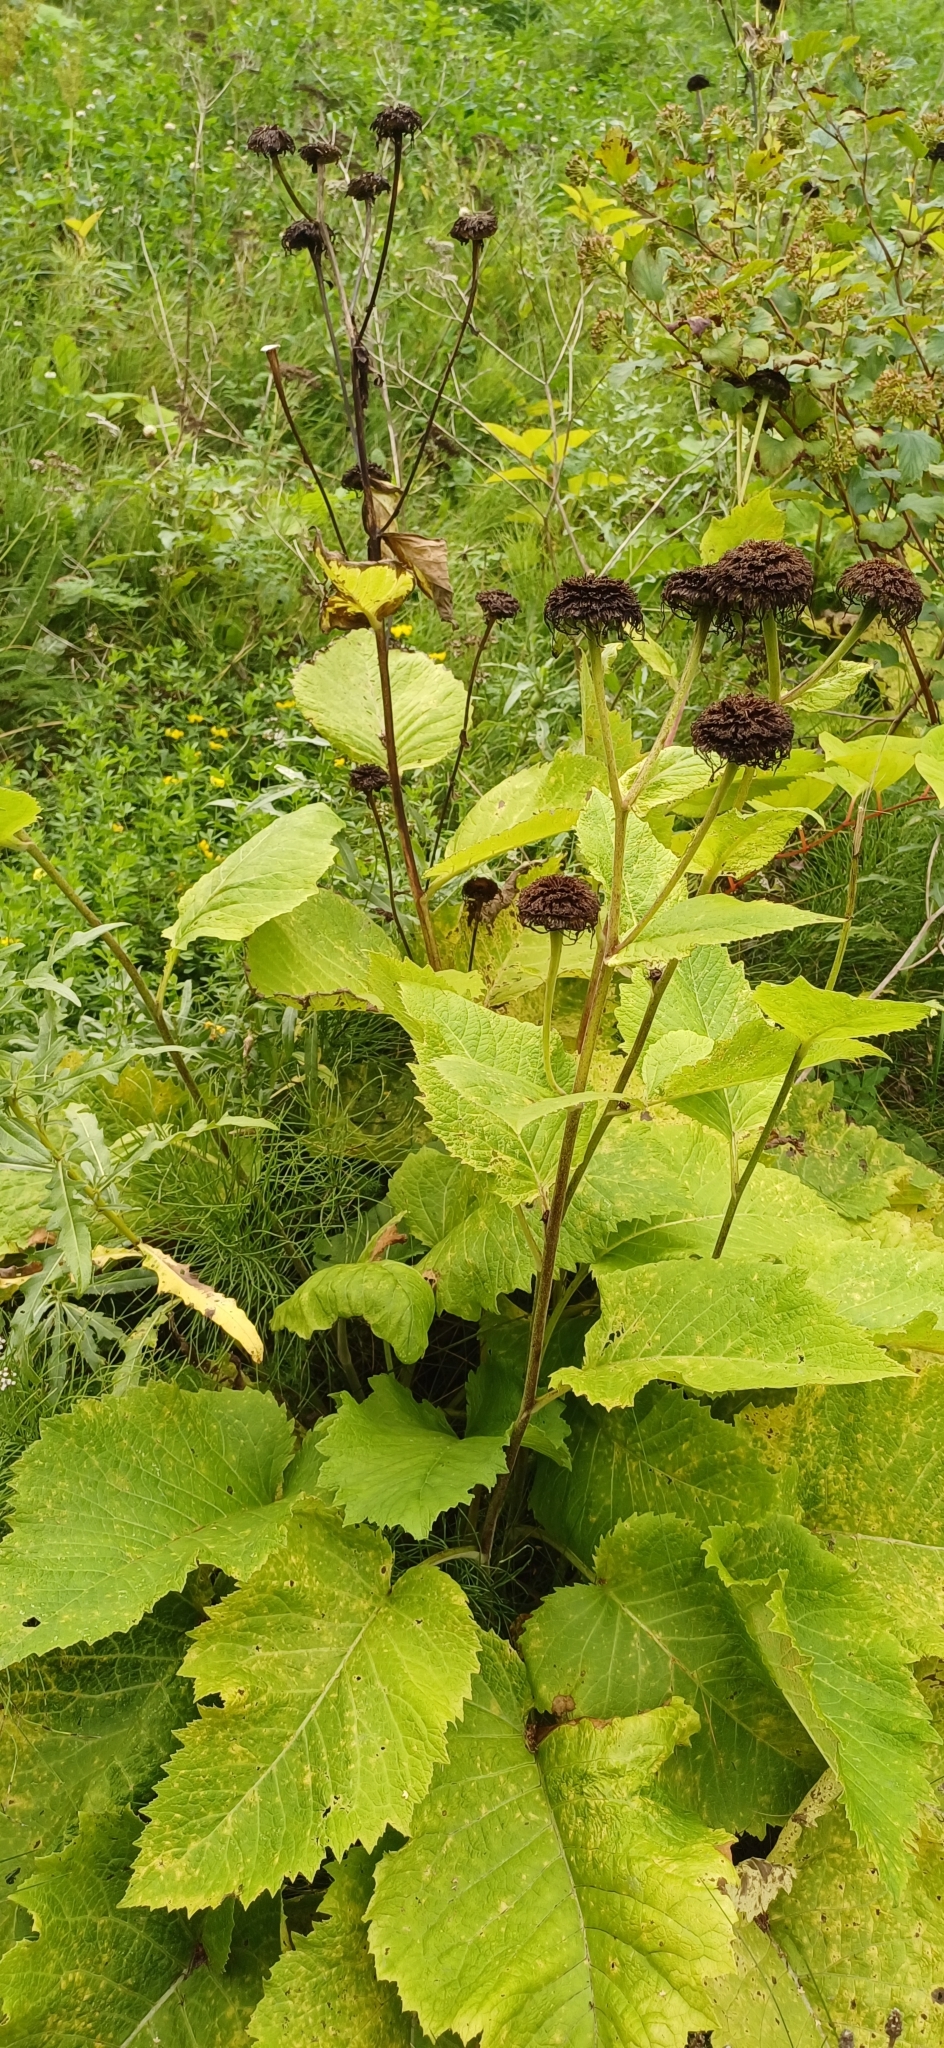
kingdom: Plantae
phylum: Tracheophyta
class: Magnoliopsida
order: Asterales
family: Asteraceae
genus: Telekia
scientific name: Telekia speciosa
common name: Yellow oxeye
